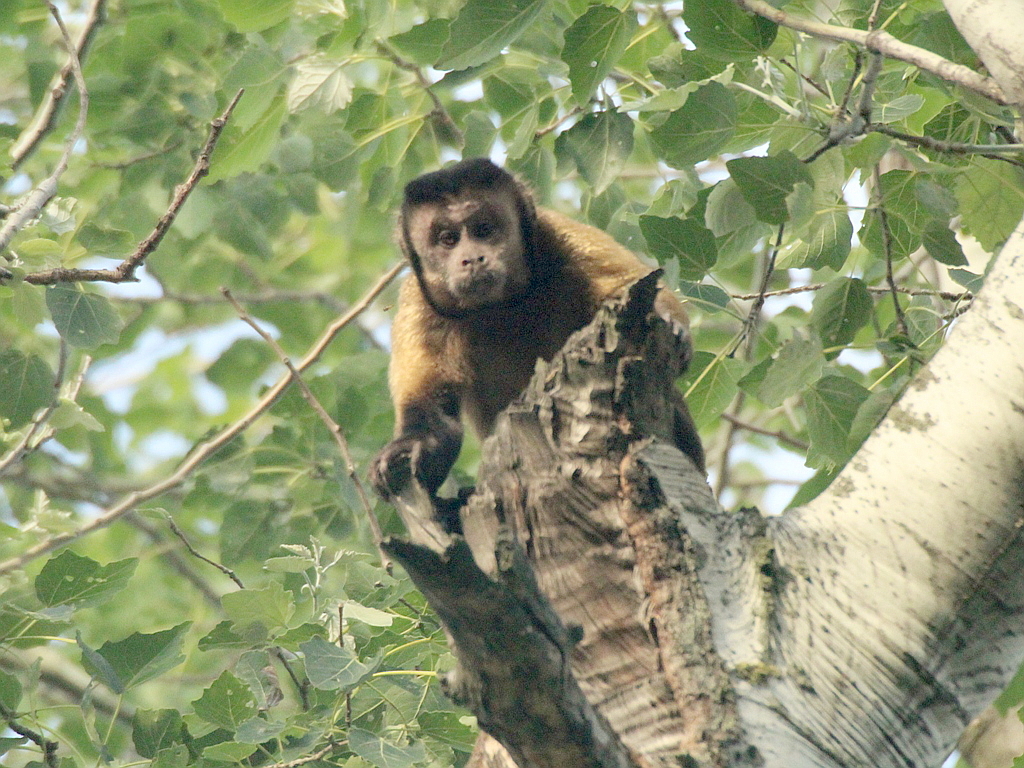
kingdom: Animalia
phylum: Chordata
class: Mammalia
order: Primates
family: Cebidae
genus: Sapajus
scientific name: Sapajus apella
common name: Tufted capuchin
